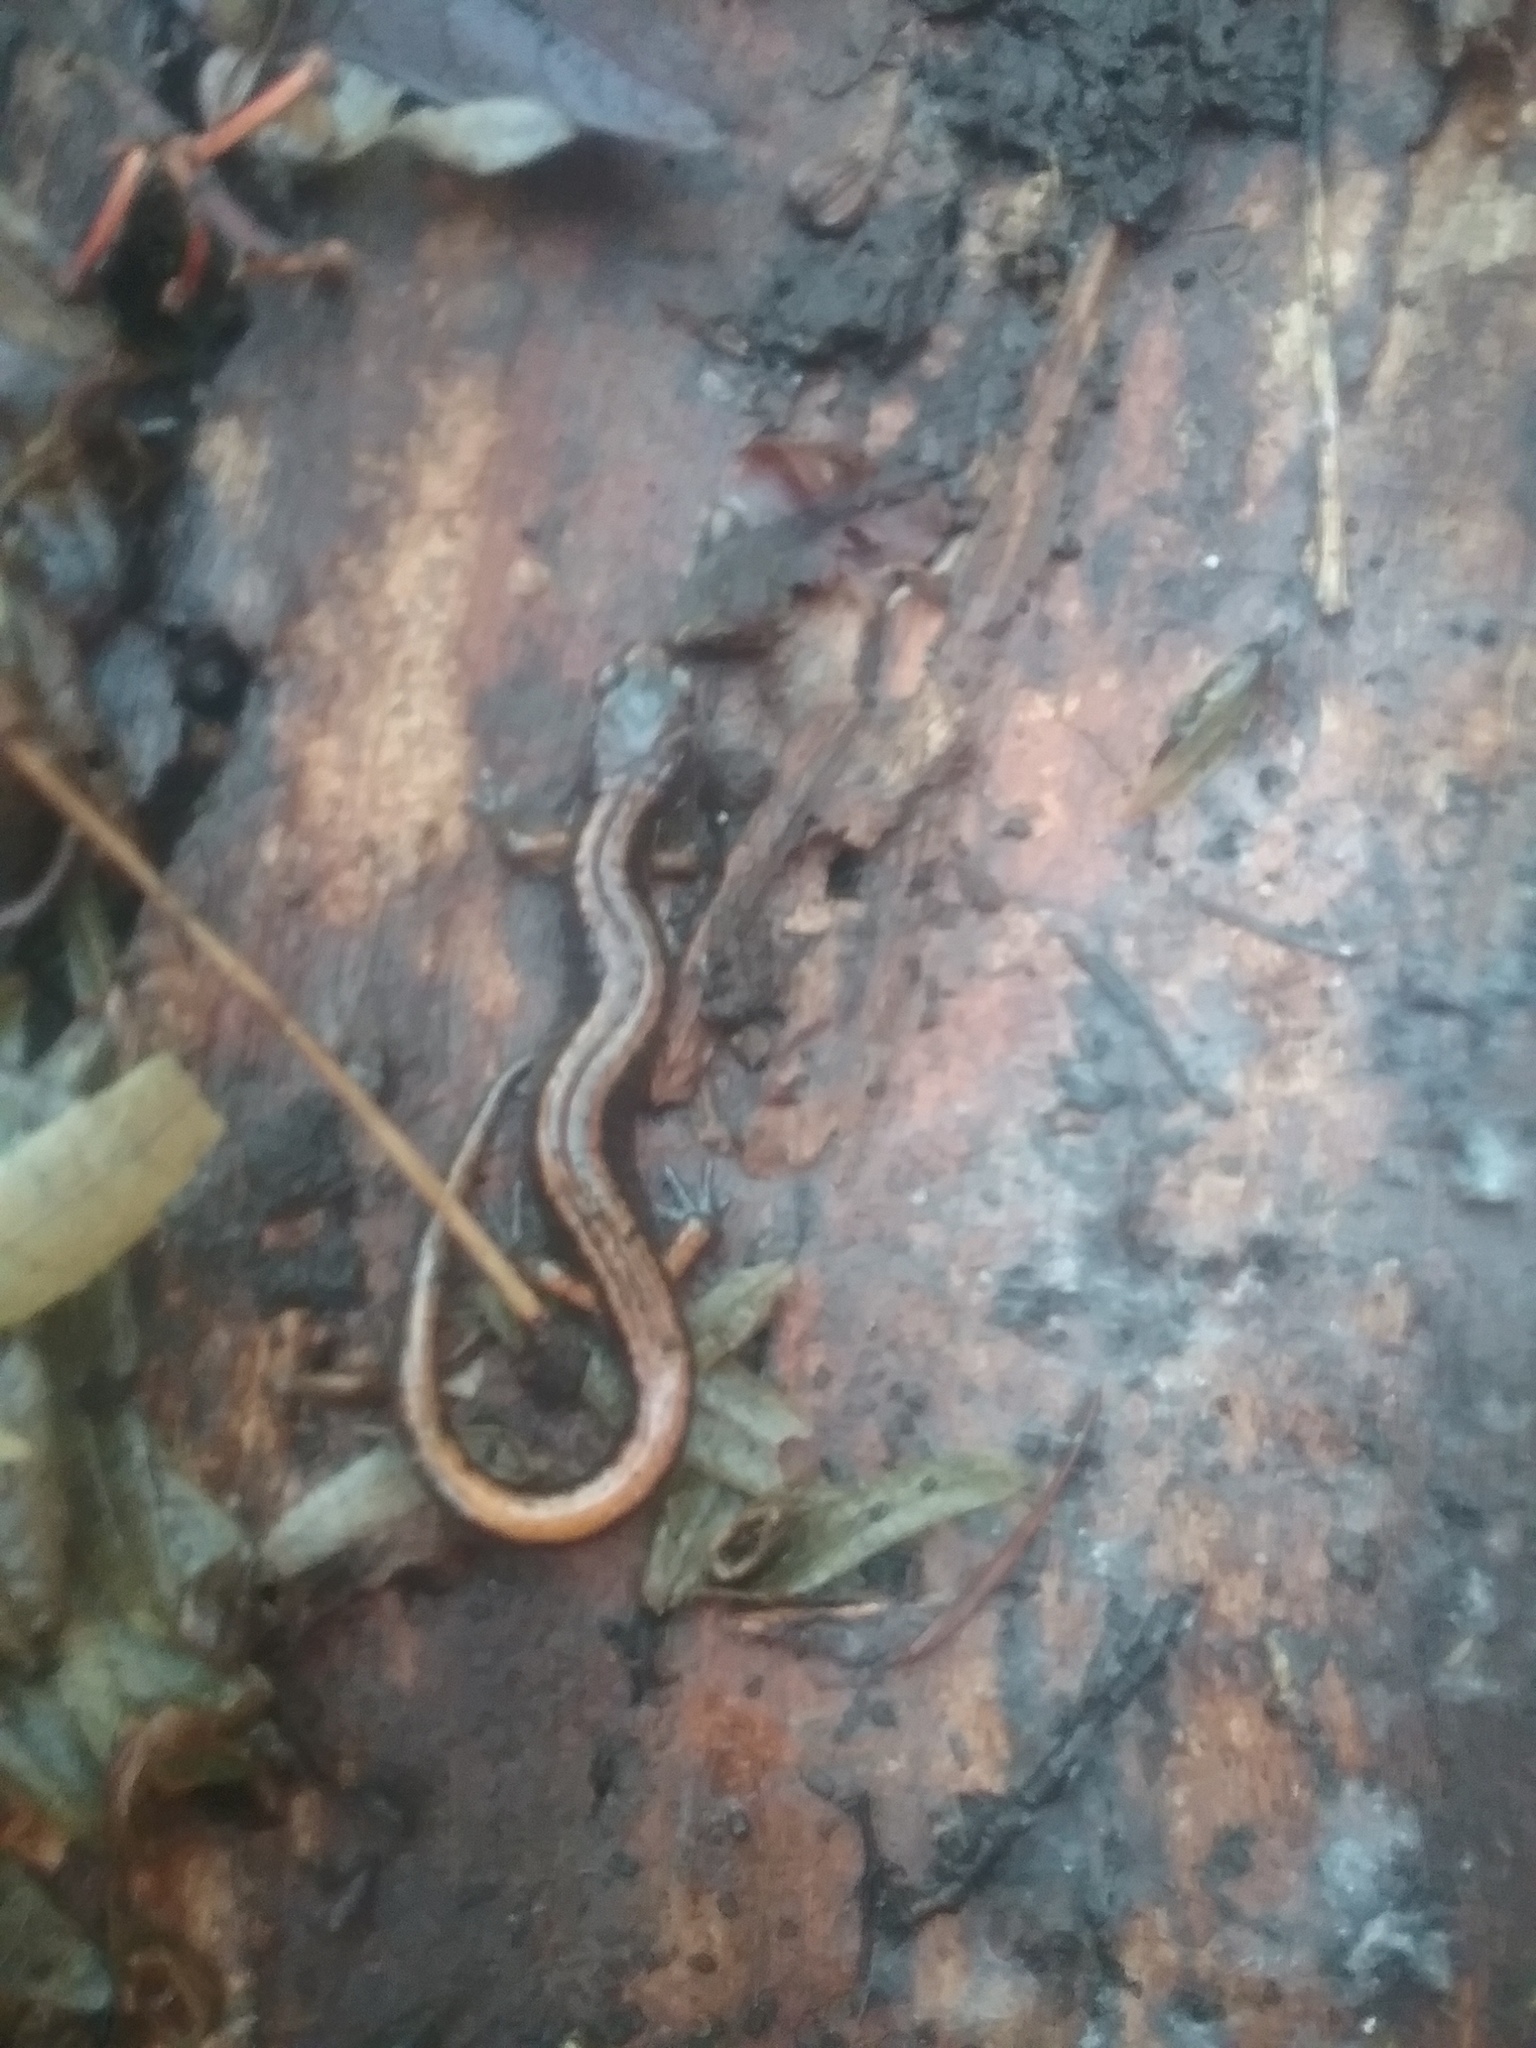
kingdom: Animalia
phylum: Chordata
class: Amphibia
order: Caudata
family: Plethodontidae
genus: Plethodon
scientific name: Plethodon vehiculum
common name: Western red-backed salamander
